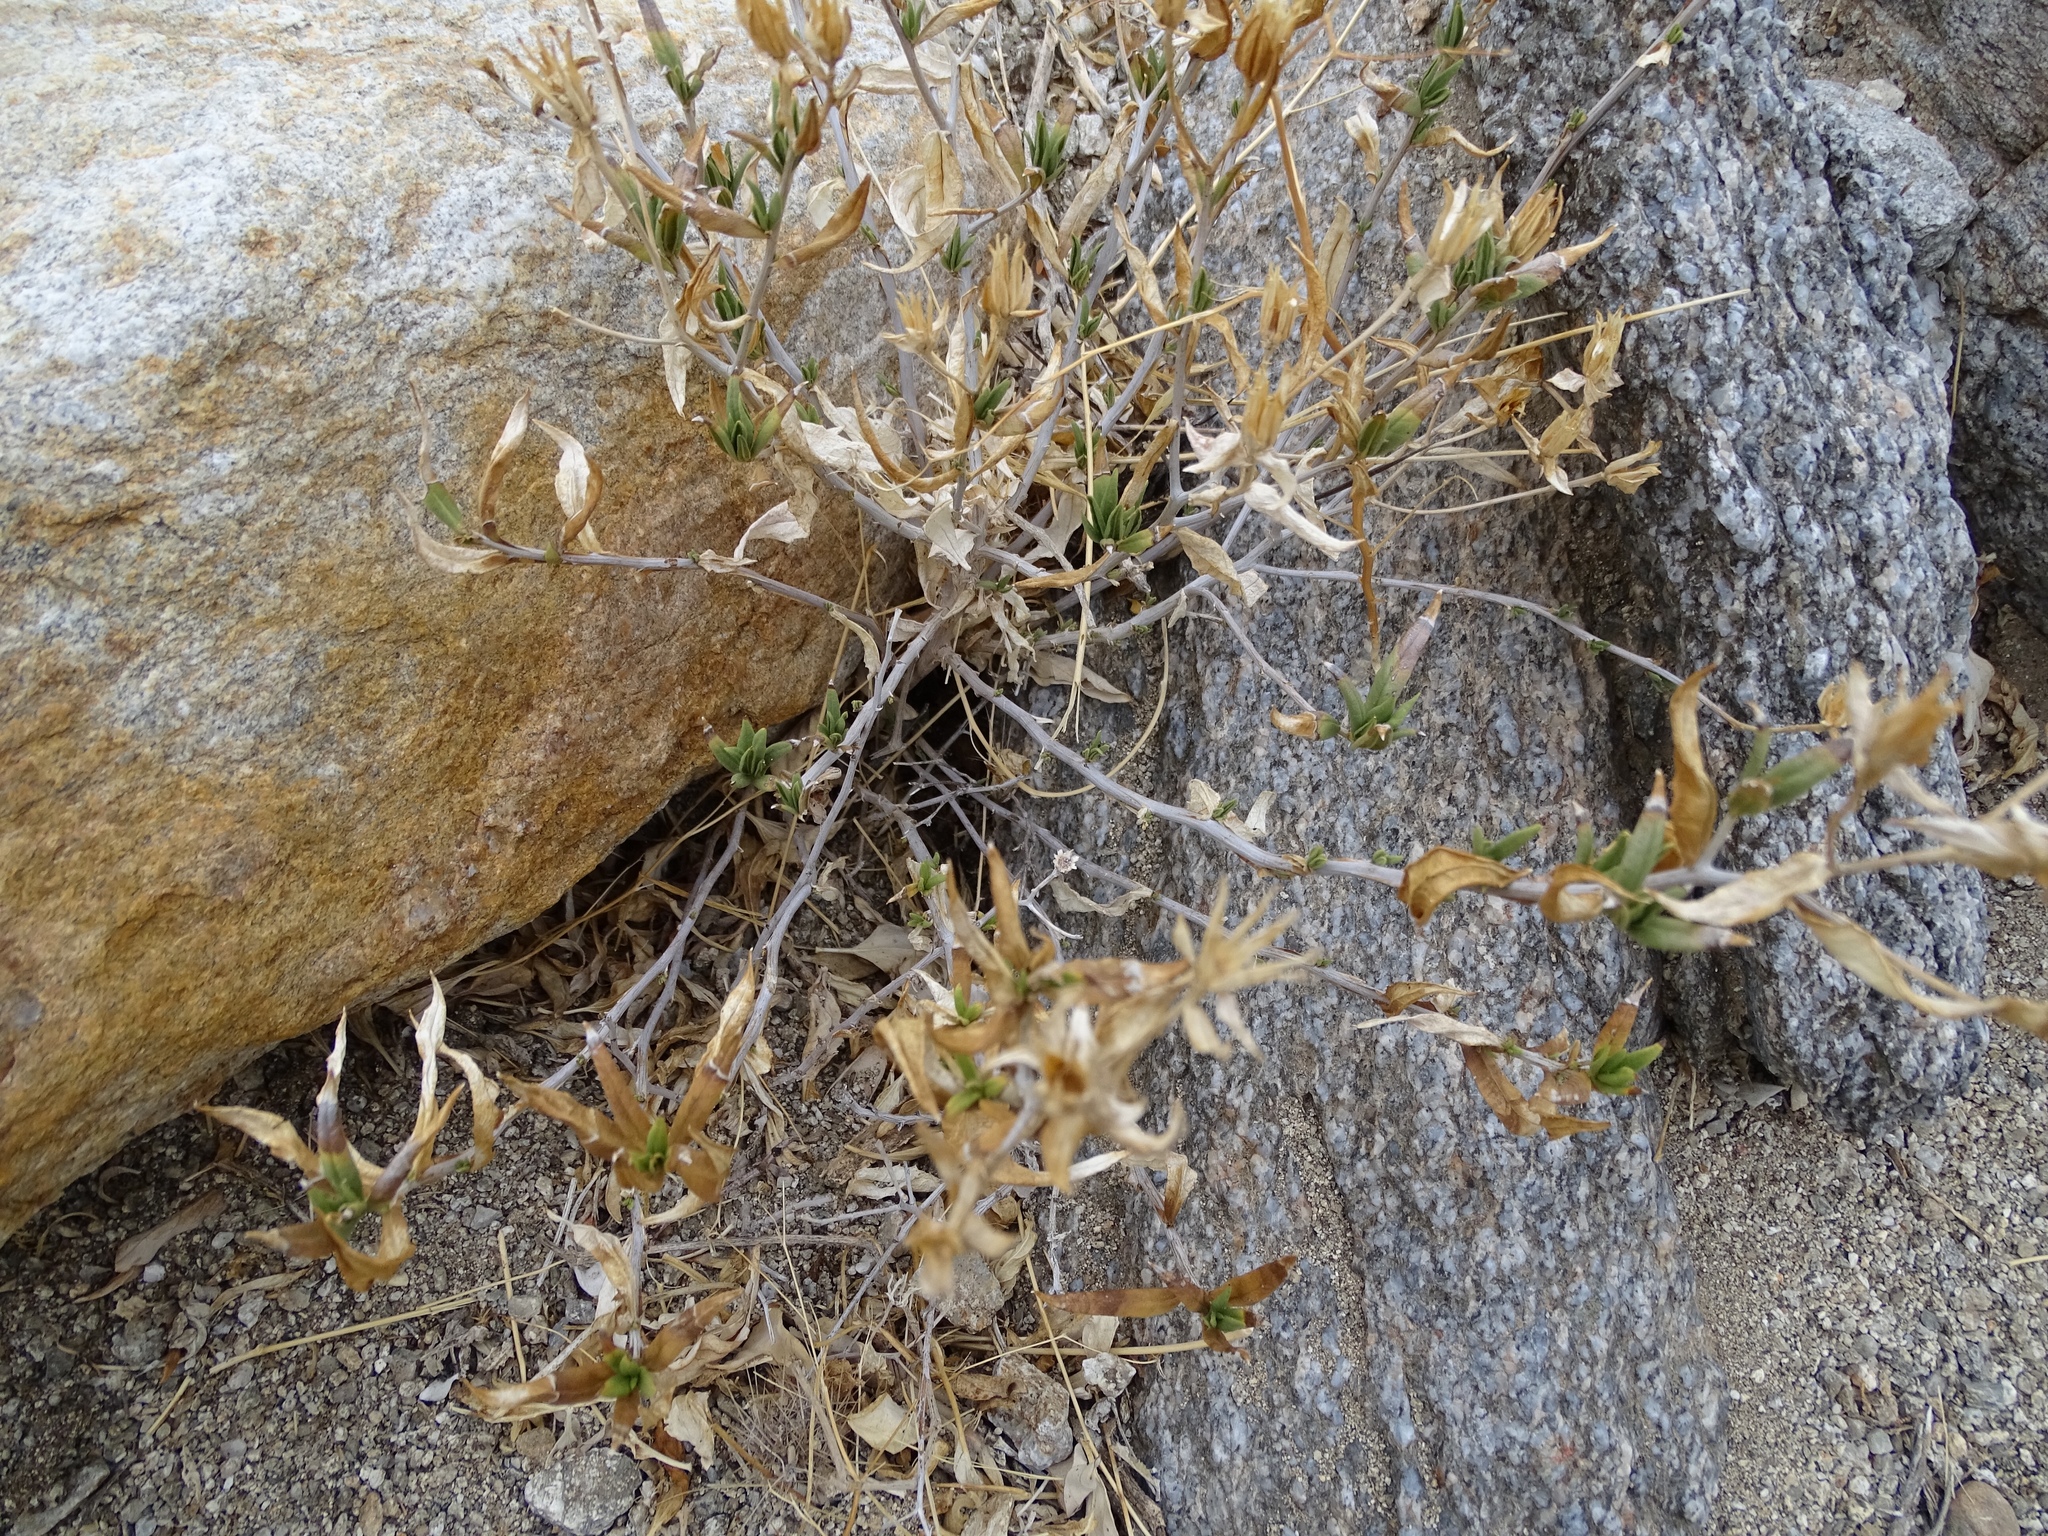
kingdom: Plantae
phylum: Tracheophyta
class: Magnoliopsida
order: Asterales
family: Asteraceae
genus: Trixis
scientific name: Trixis californica
